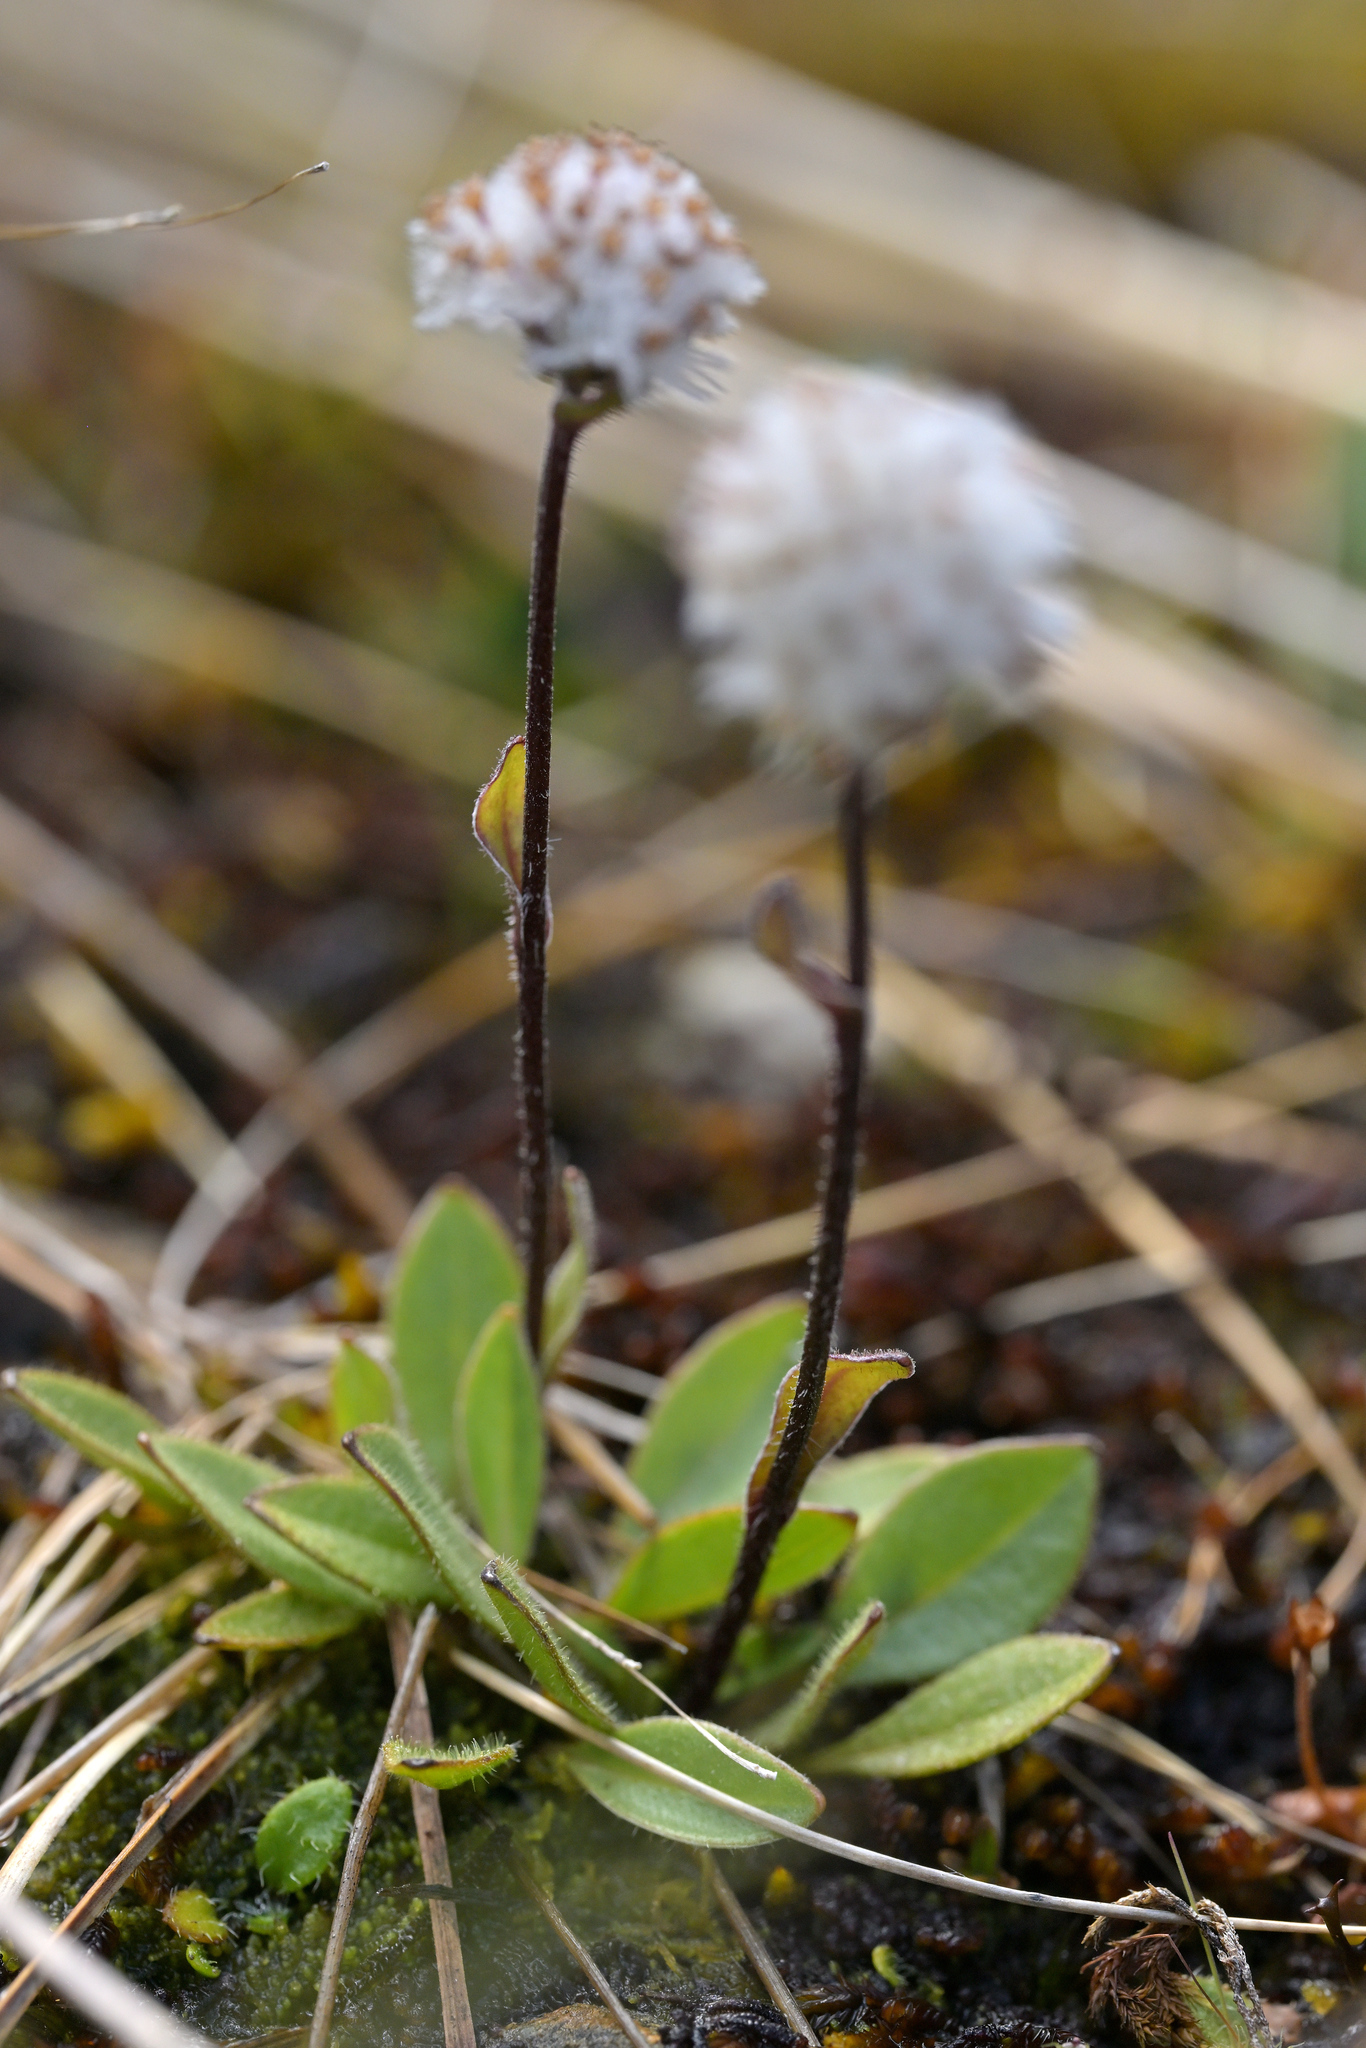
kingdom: Plantae
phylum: Tracheophyta
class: Magnoliopsida
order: Asterales
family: Asteraceae
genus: Craspedia
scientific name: Craspedia uniflora
